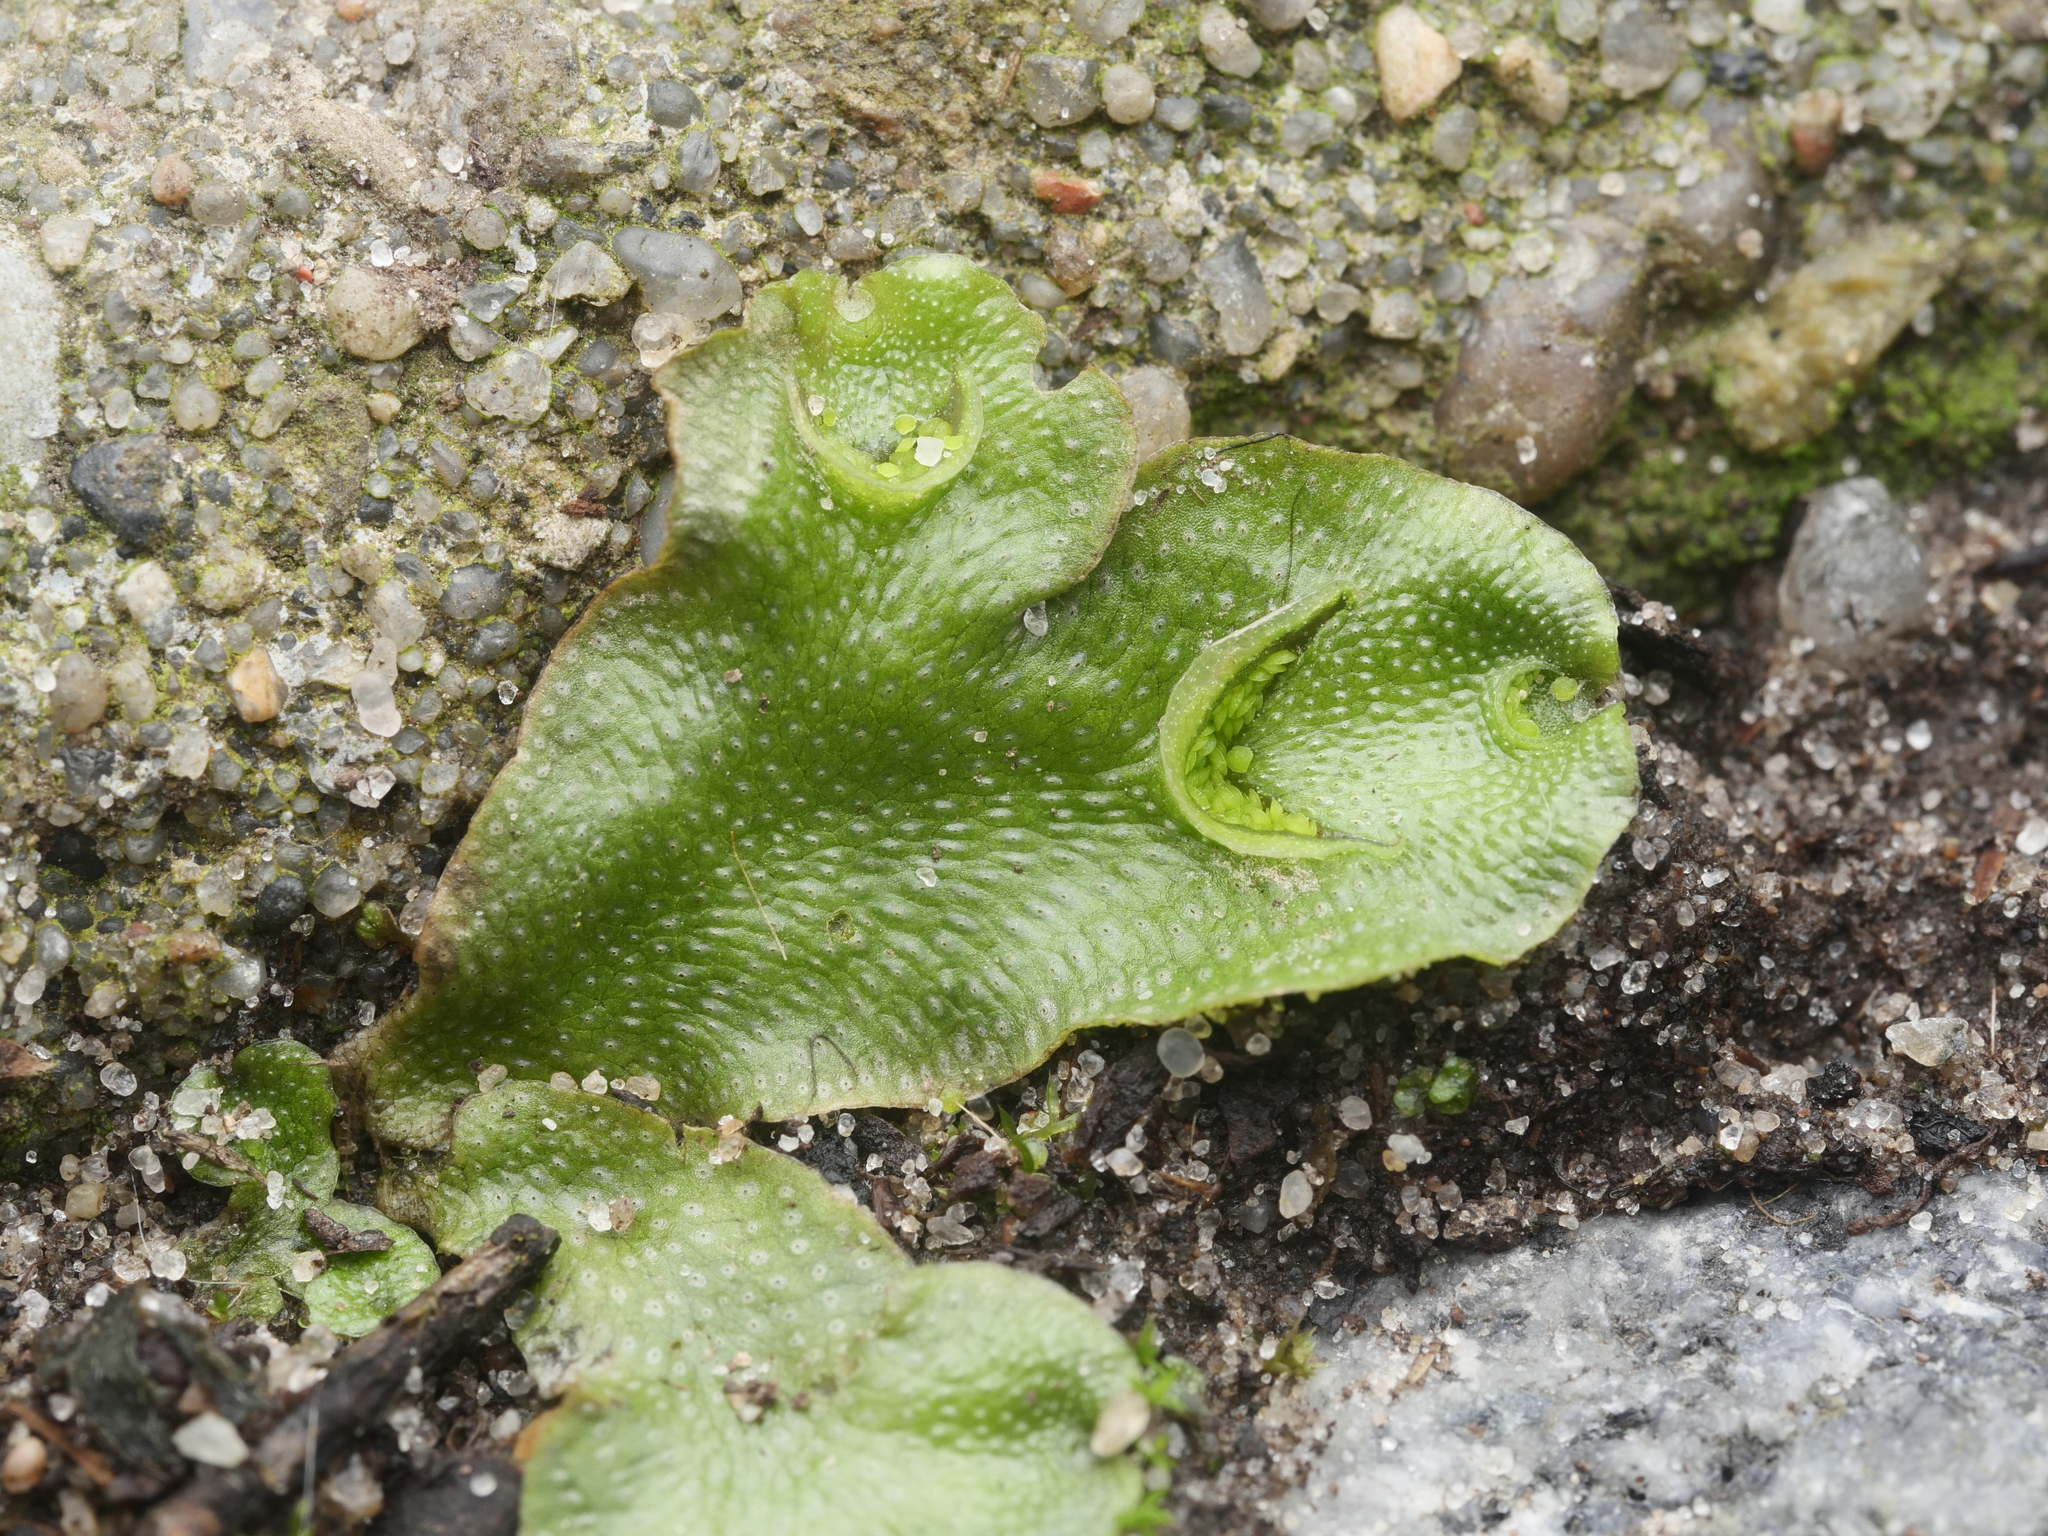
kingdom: Plantae
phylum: Marchantiophyta
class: Marchantiopsida
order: Lunulariales
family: Lunulariaceae
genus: Lunularia
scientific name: Lunularia cruciata
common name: Crescent-cup liverwort
